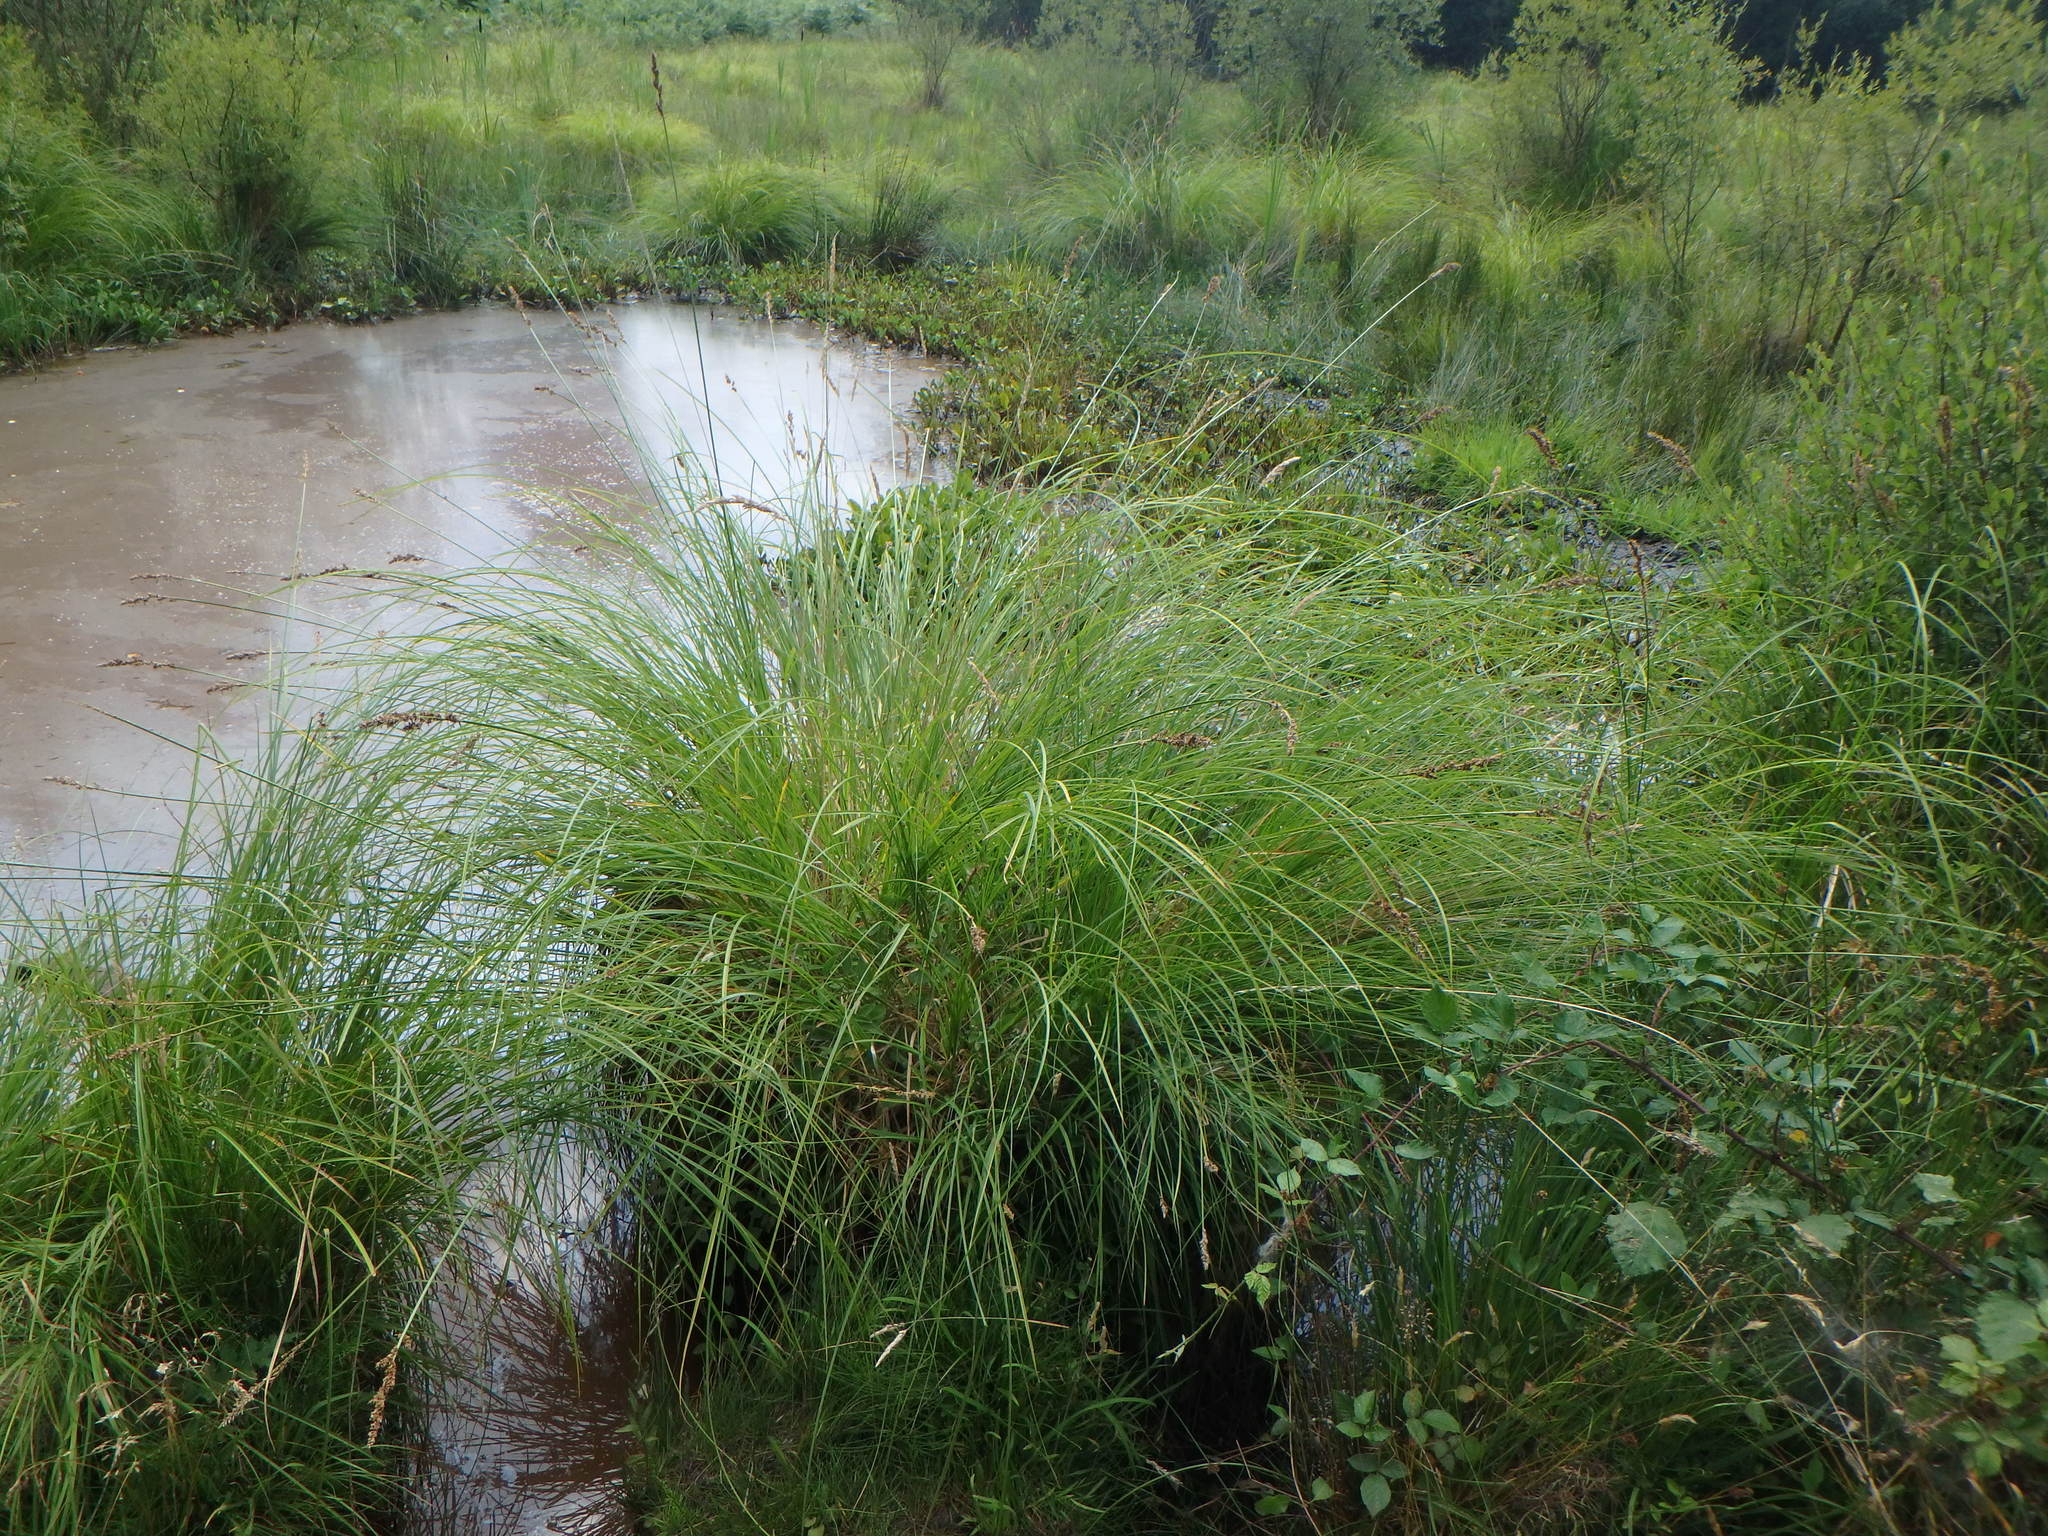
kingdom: Plantae
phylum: Tracheophyta
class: Liliopsida
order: Poales
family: Cyperaceae
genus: Carex
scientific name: Carex paniculata
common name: Greater tussock-sedge
